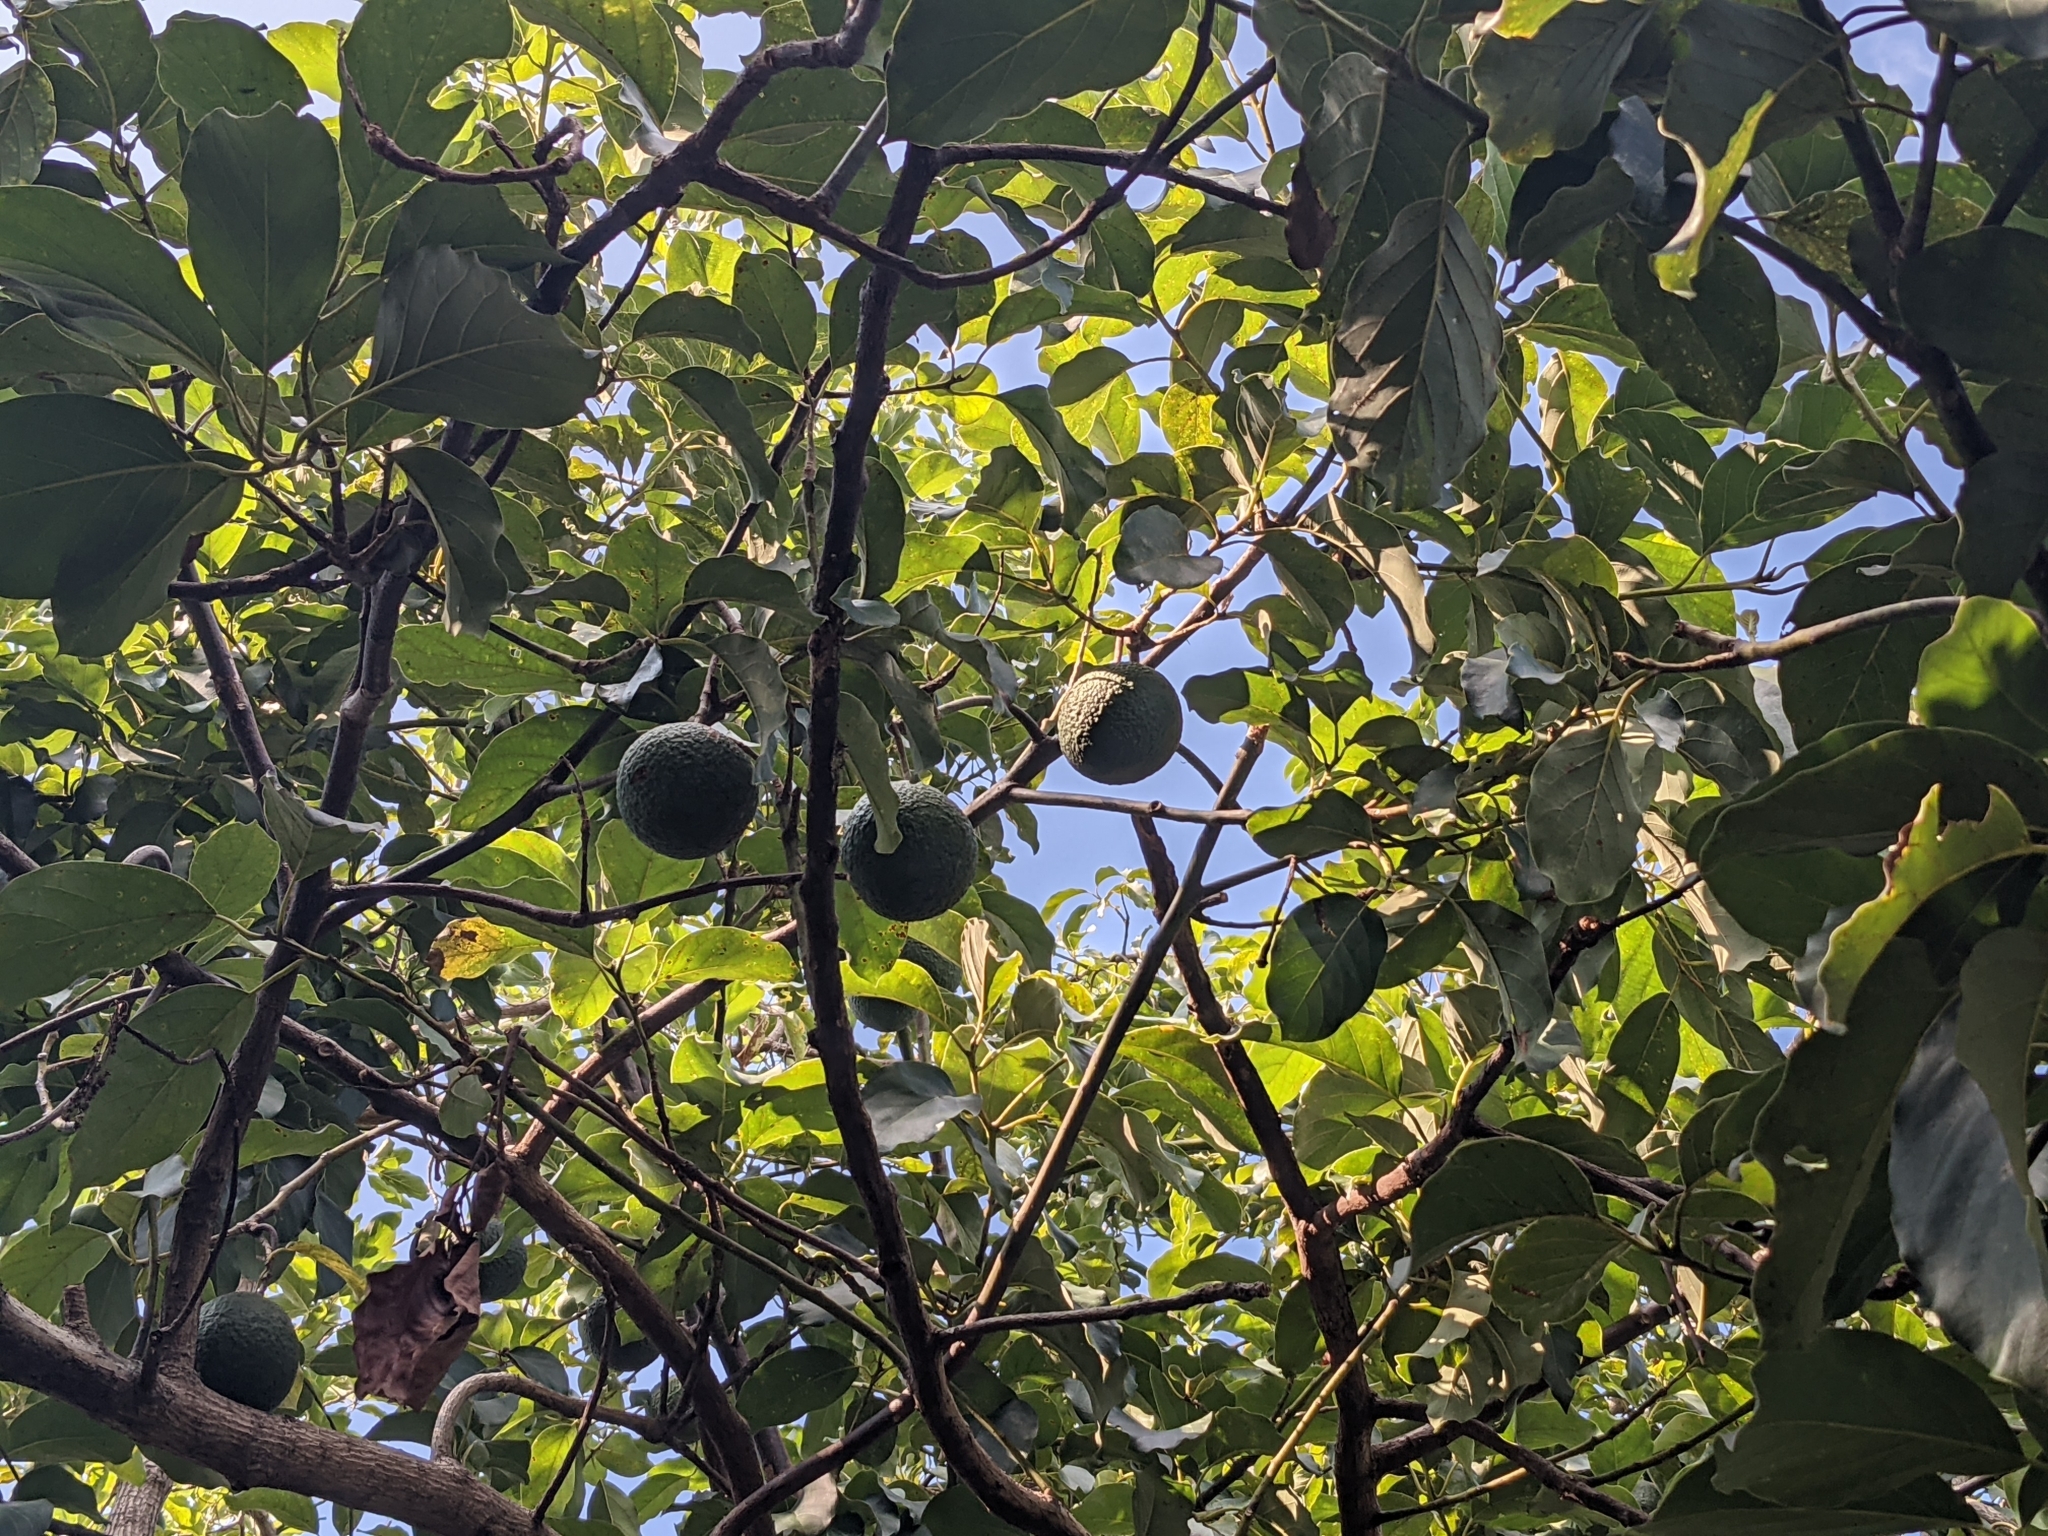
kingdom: Plantae
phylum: Tracheophyta
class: Magnoliopsida
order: Laurales
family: Lauraceae
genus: Persea
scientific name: Persea americana
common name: Avocado
